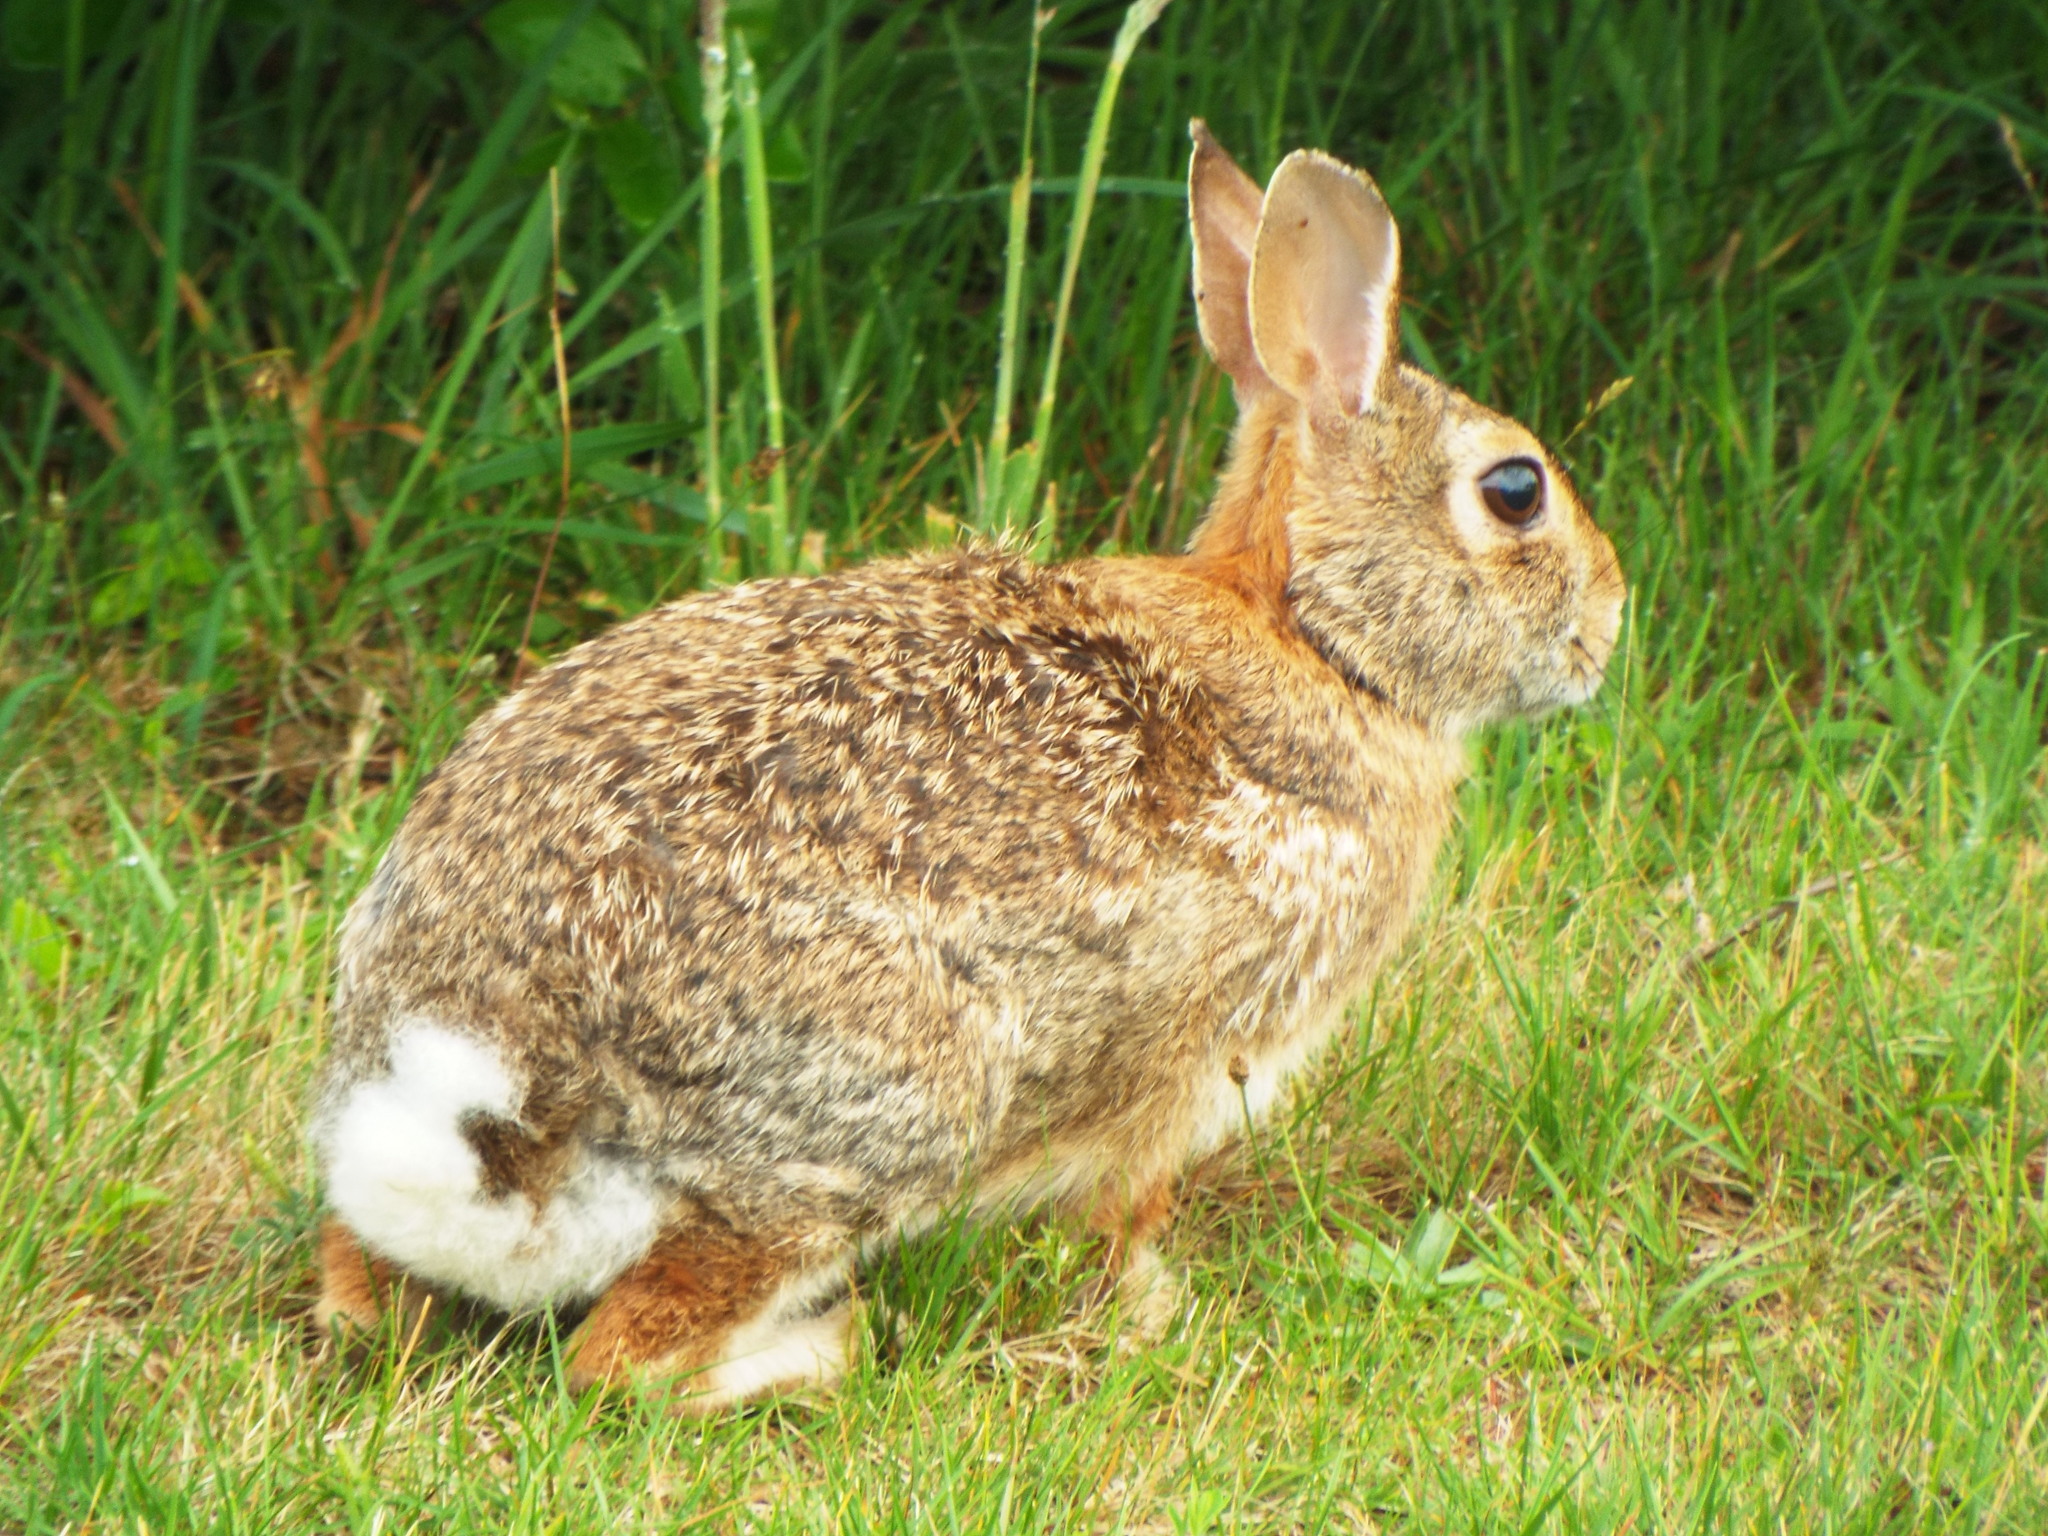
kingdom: Animalia
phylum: Chordata
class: Mammalia
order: Lagomorpha
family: Leporidae
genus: Sylvilagus
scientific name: Sylvilagus floridanus
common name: Eastern cottontail
